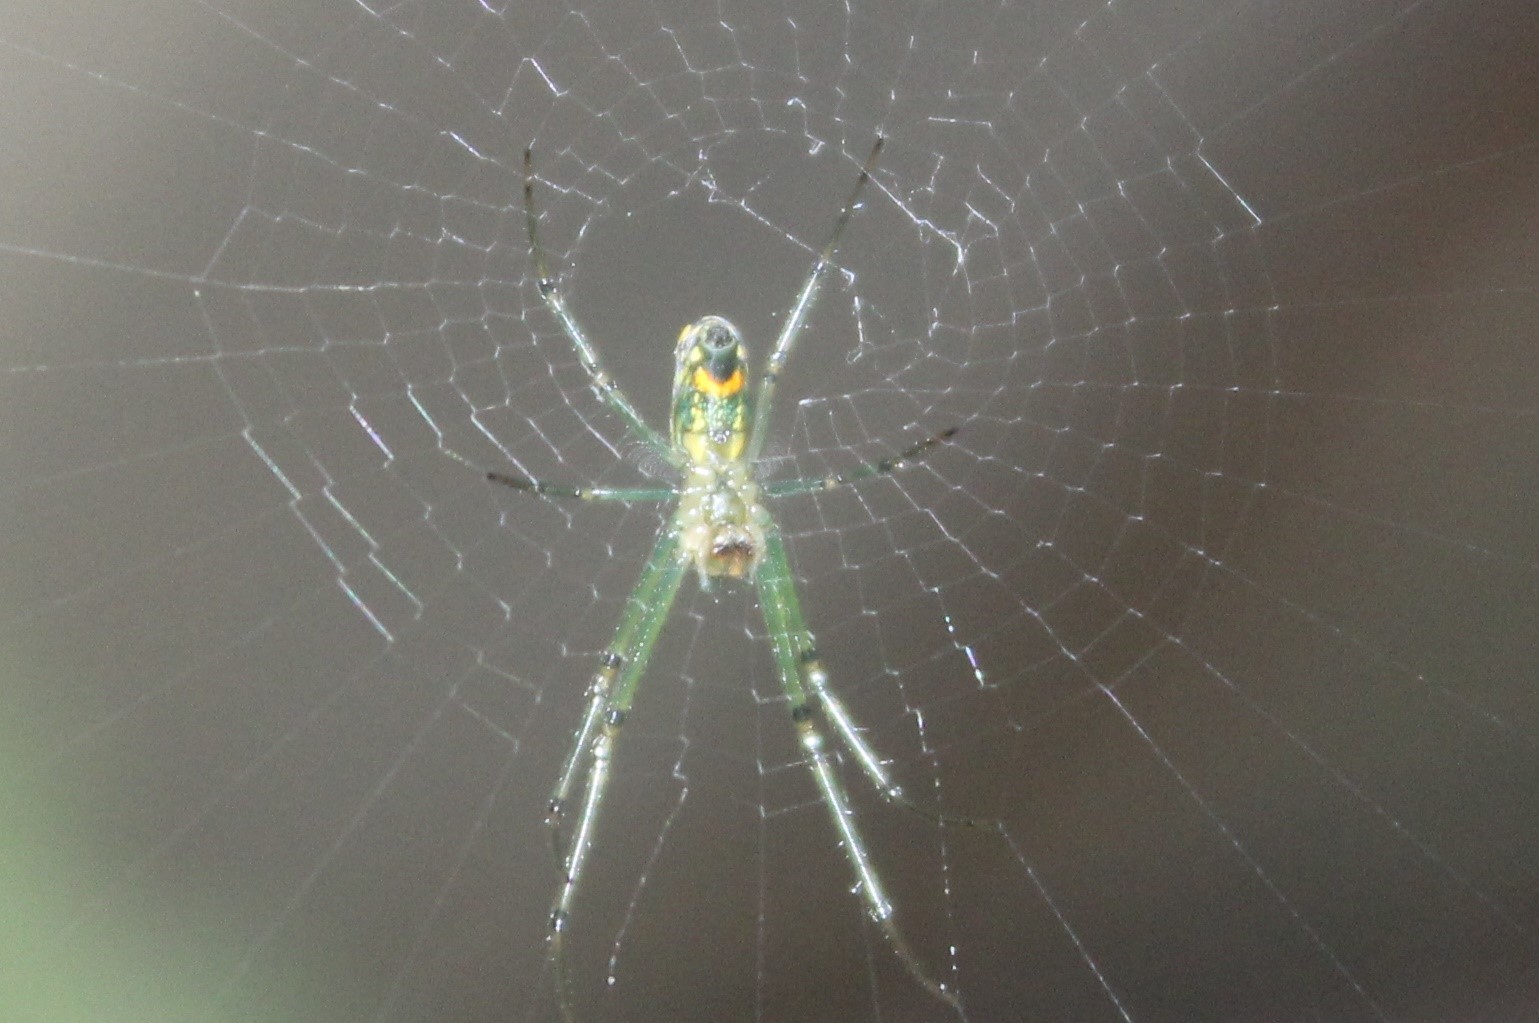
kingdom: Animalia
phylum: Arthropoda
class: Arachnida
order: Araneae
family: Tetragnathidae
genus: Leucauge
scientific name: Leucauge
